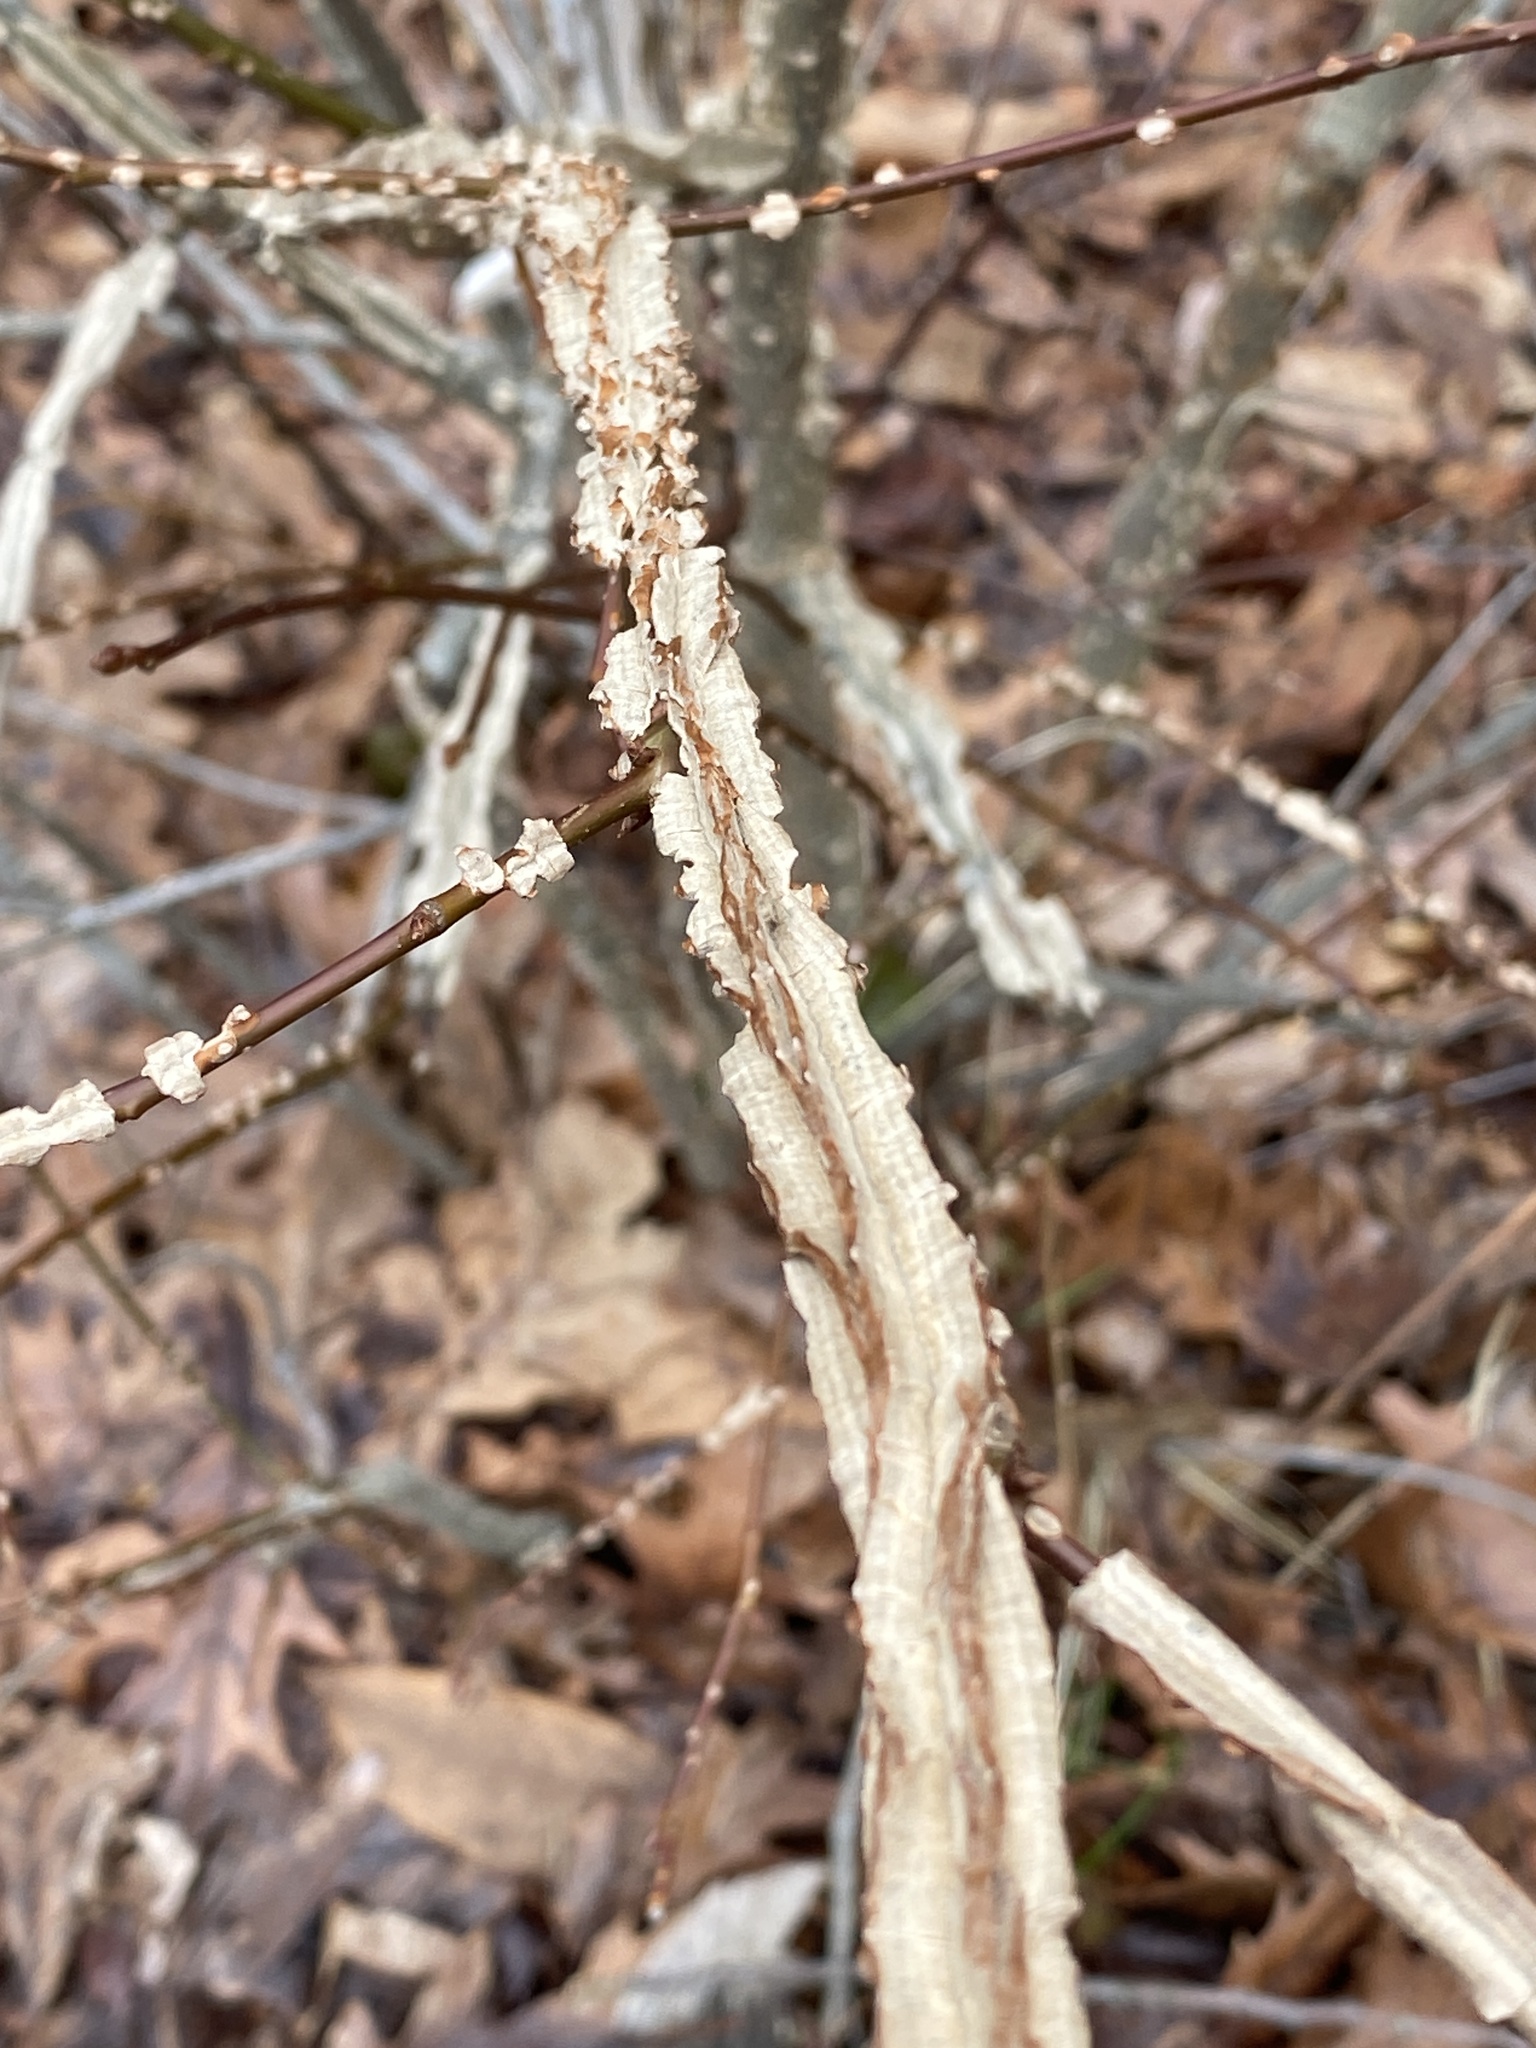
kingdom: Plantae
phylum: Tracheophyta
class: Magnoliopsida
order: Saxifragales
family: Altingiaceae
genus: Liquidambar
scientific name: Liquidambar styraciflua
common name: Sweet gum
